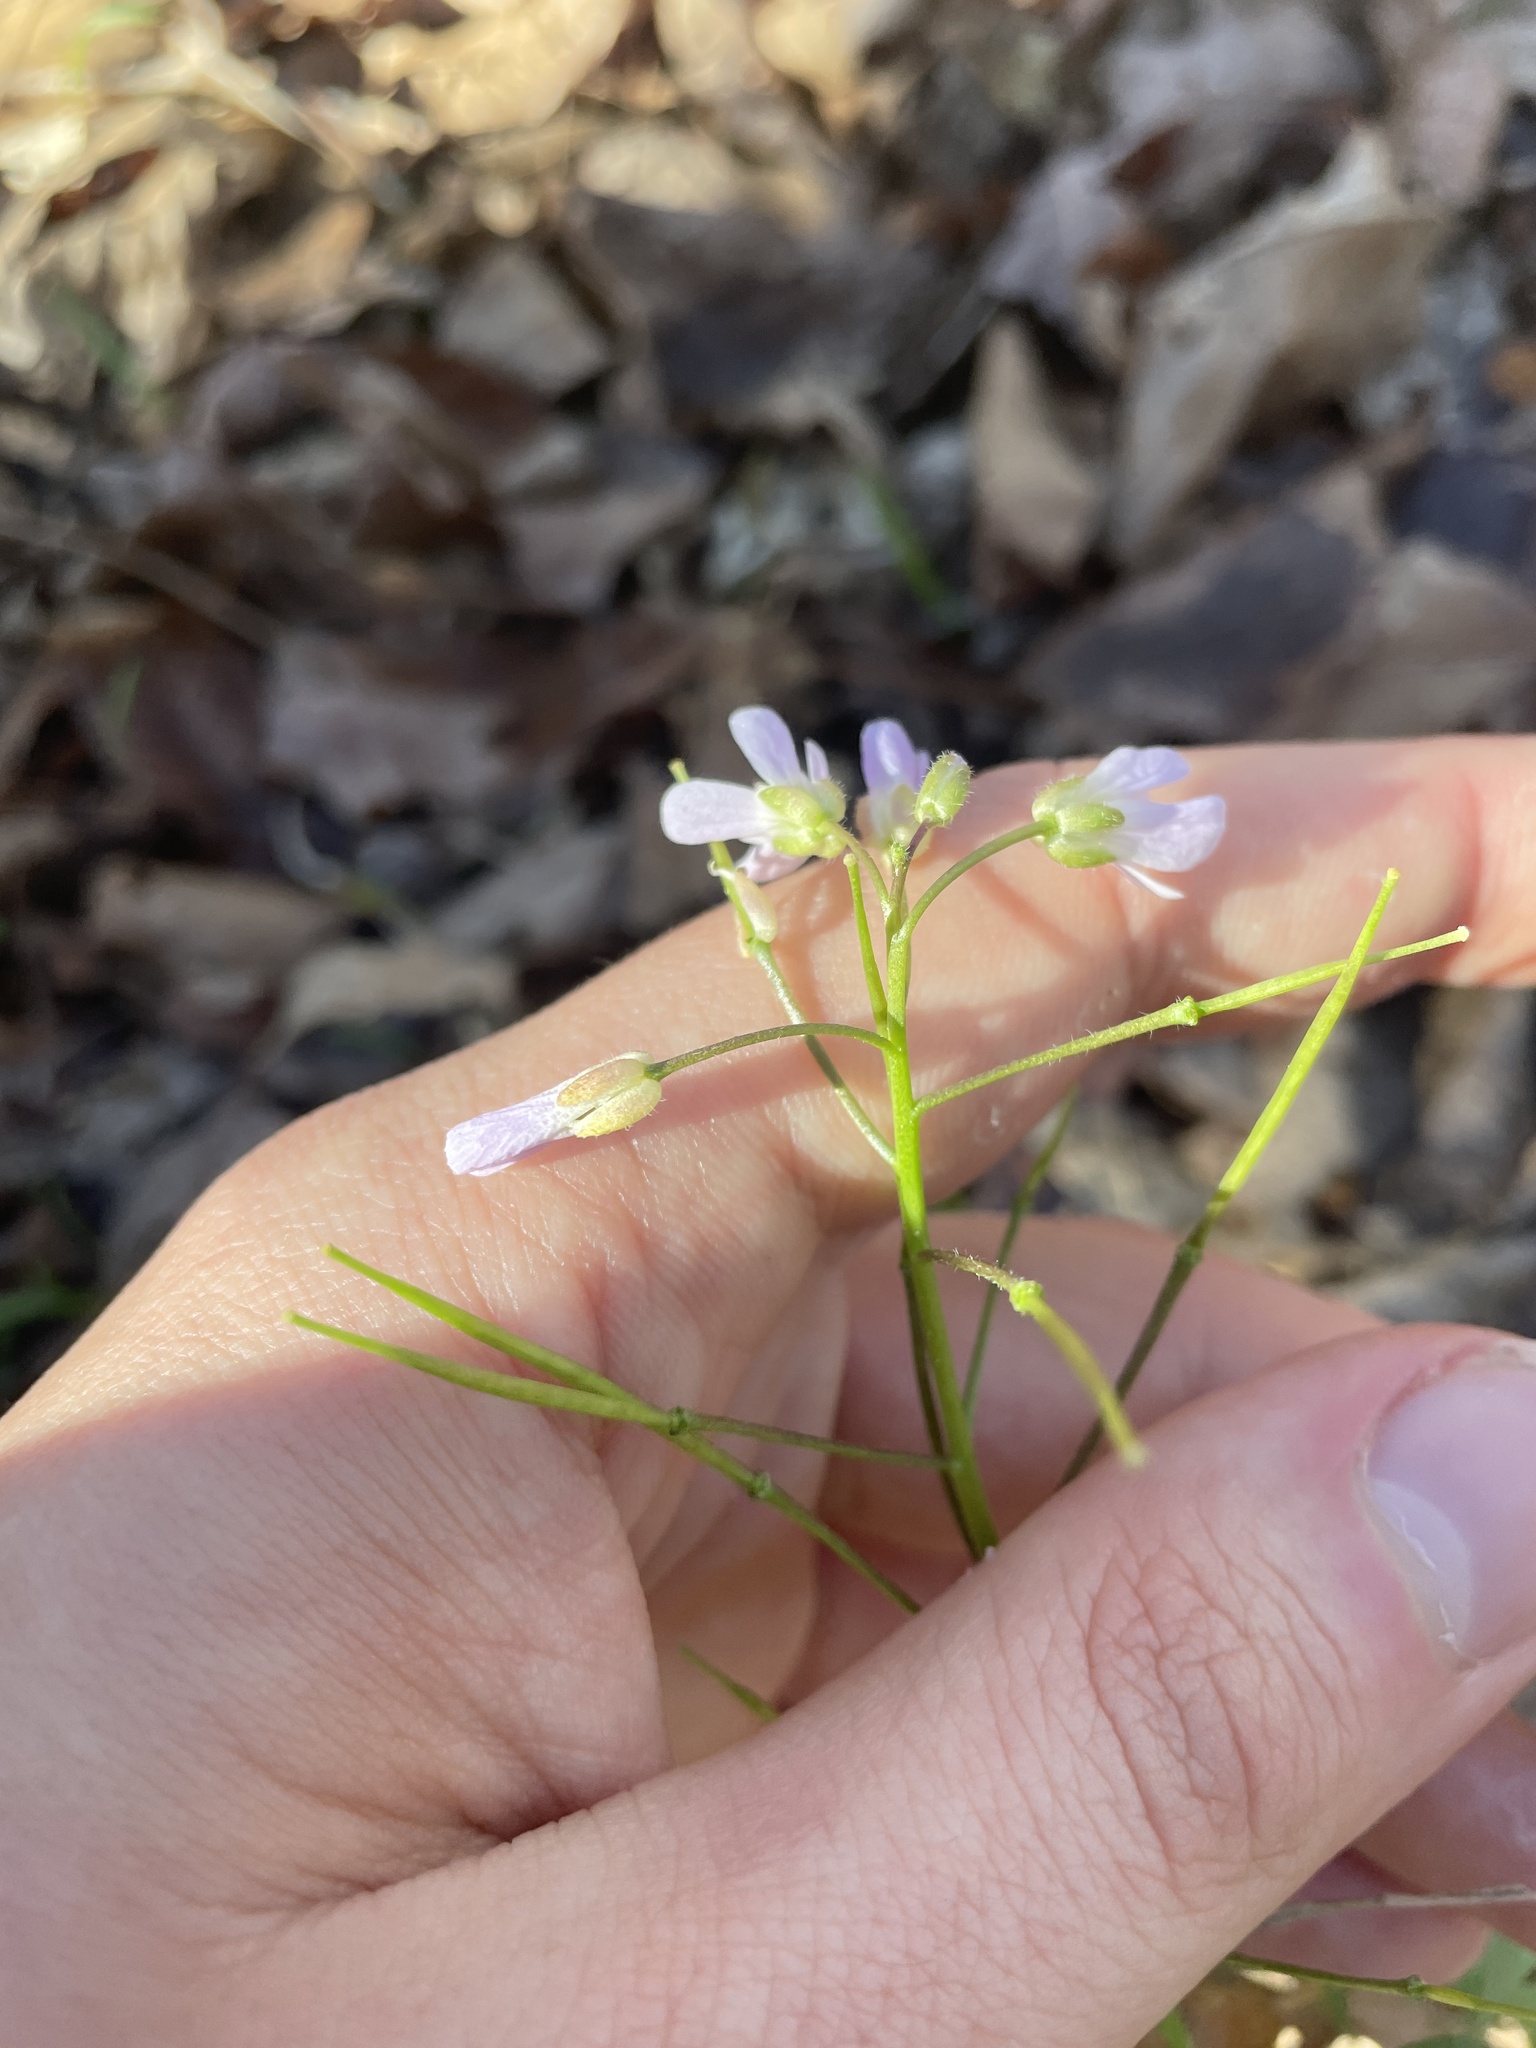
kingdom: Plantae
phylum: Tracheophyta
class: Magnoliopsida
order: Brassicales
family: Brassicaceae
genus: Cardamine
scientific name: Cardamine douglassii
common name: Purple cress
